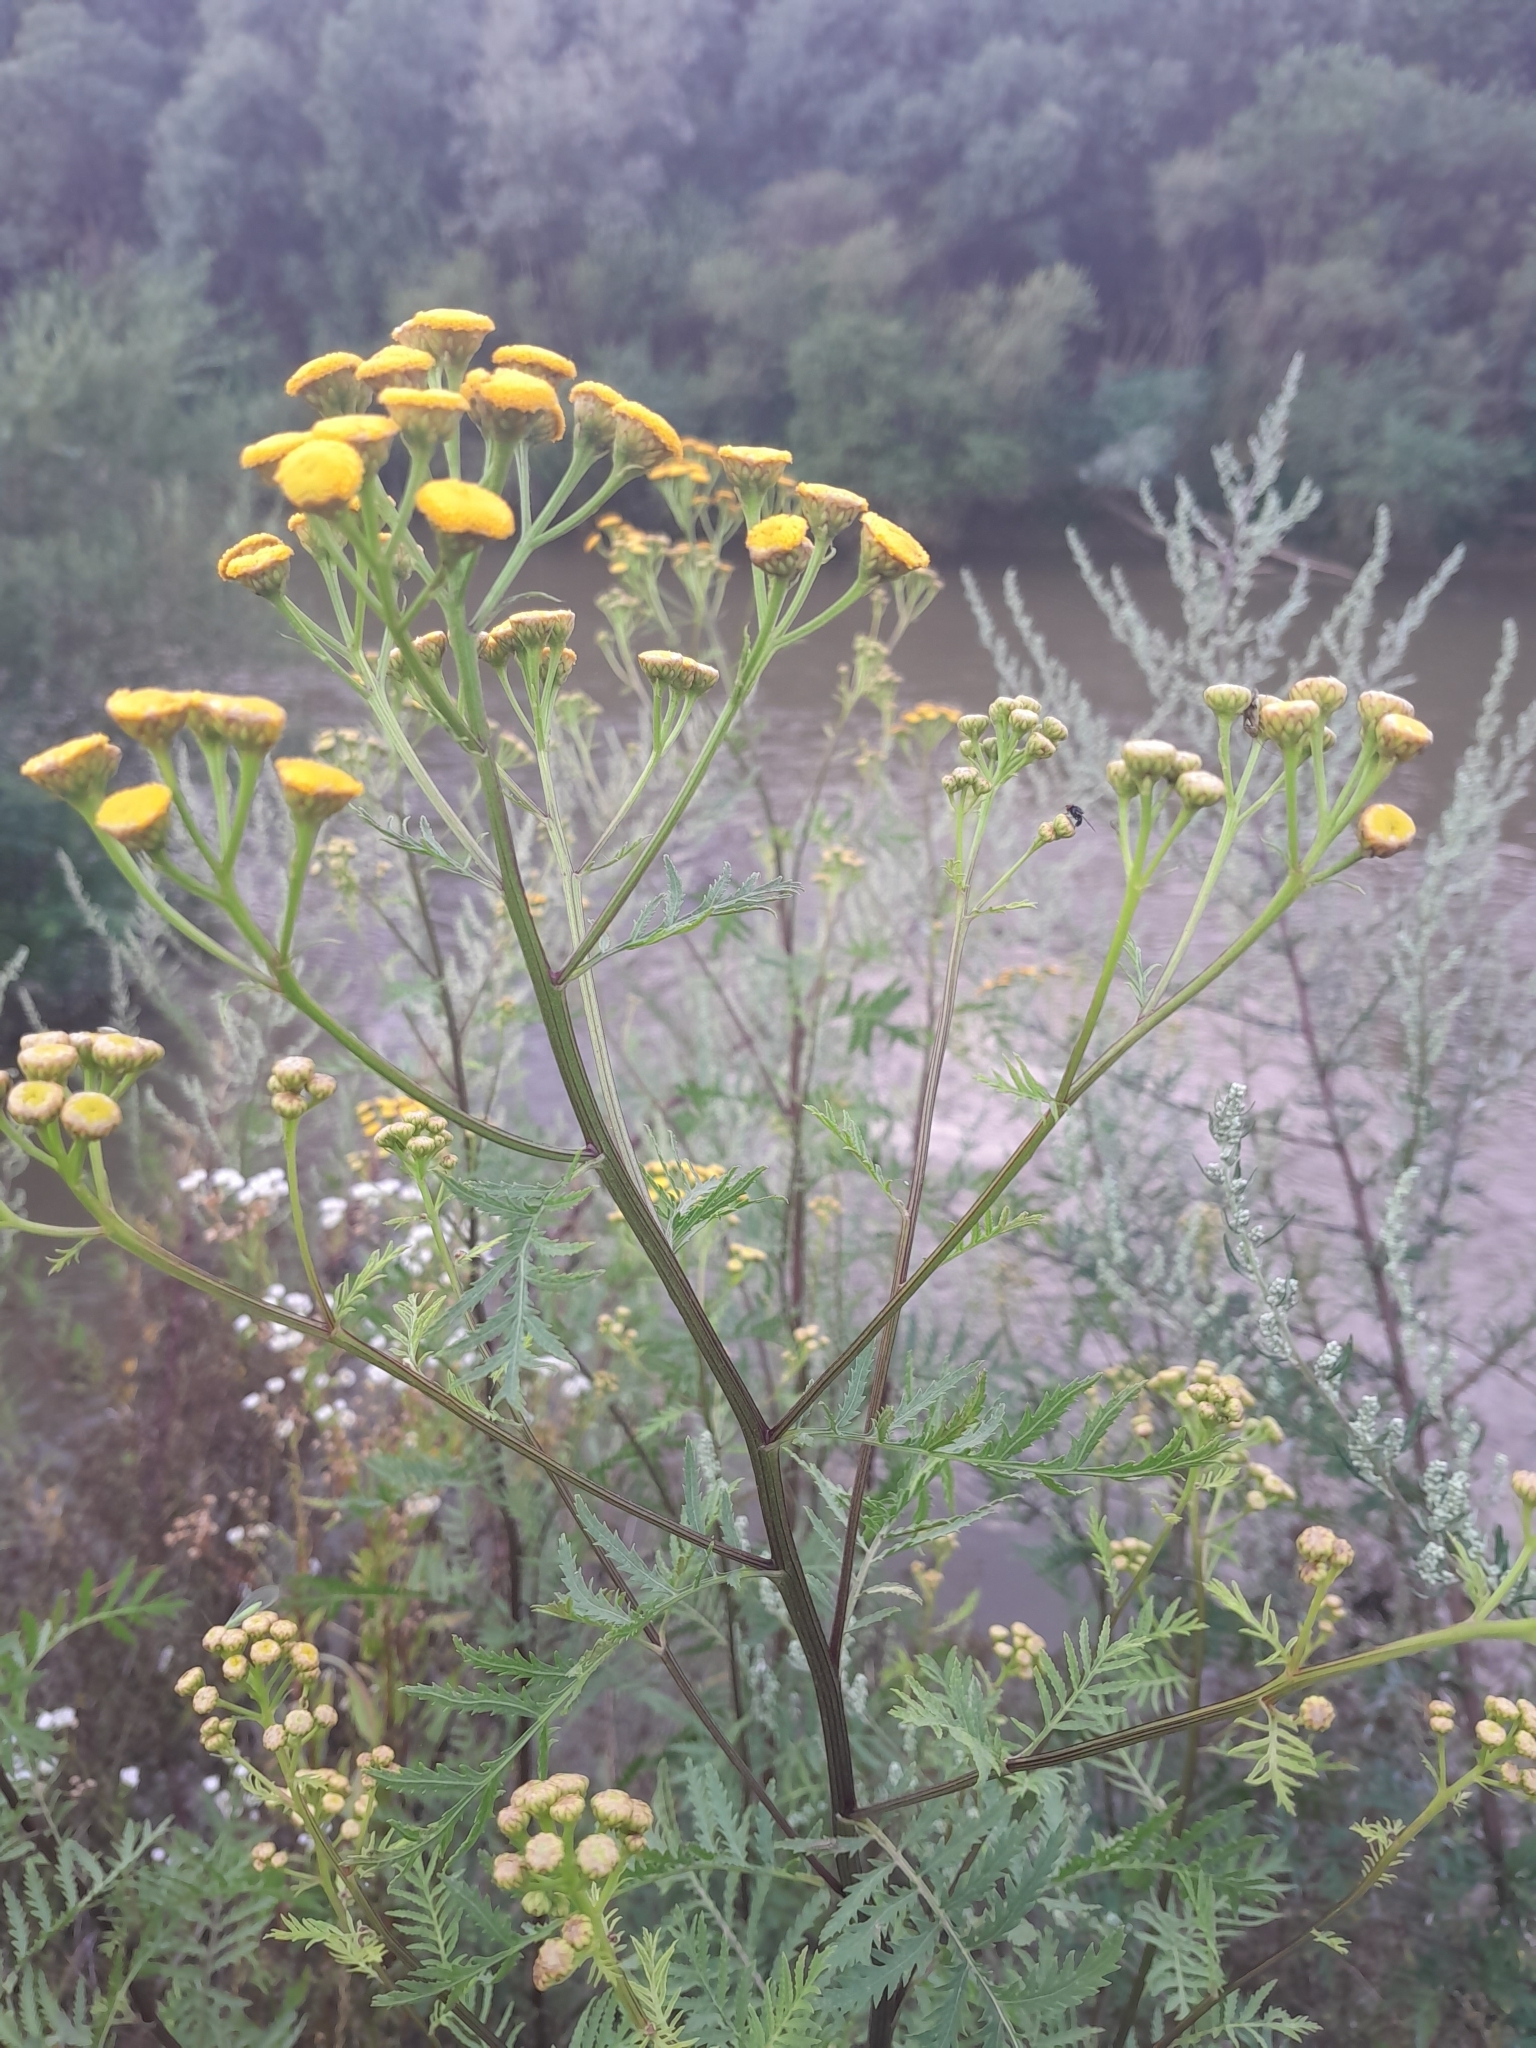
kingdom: Plantae
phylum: Tracheophyta
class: Magnoliopsida
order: Asterales
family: Asteraceae
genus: Tanacetum
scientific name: Tanacetum vulgare
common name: Common tansy
